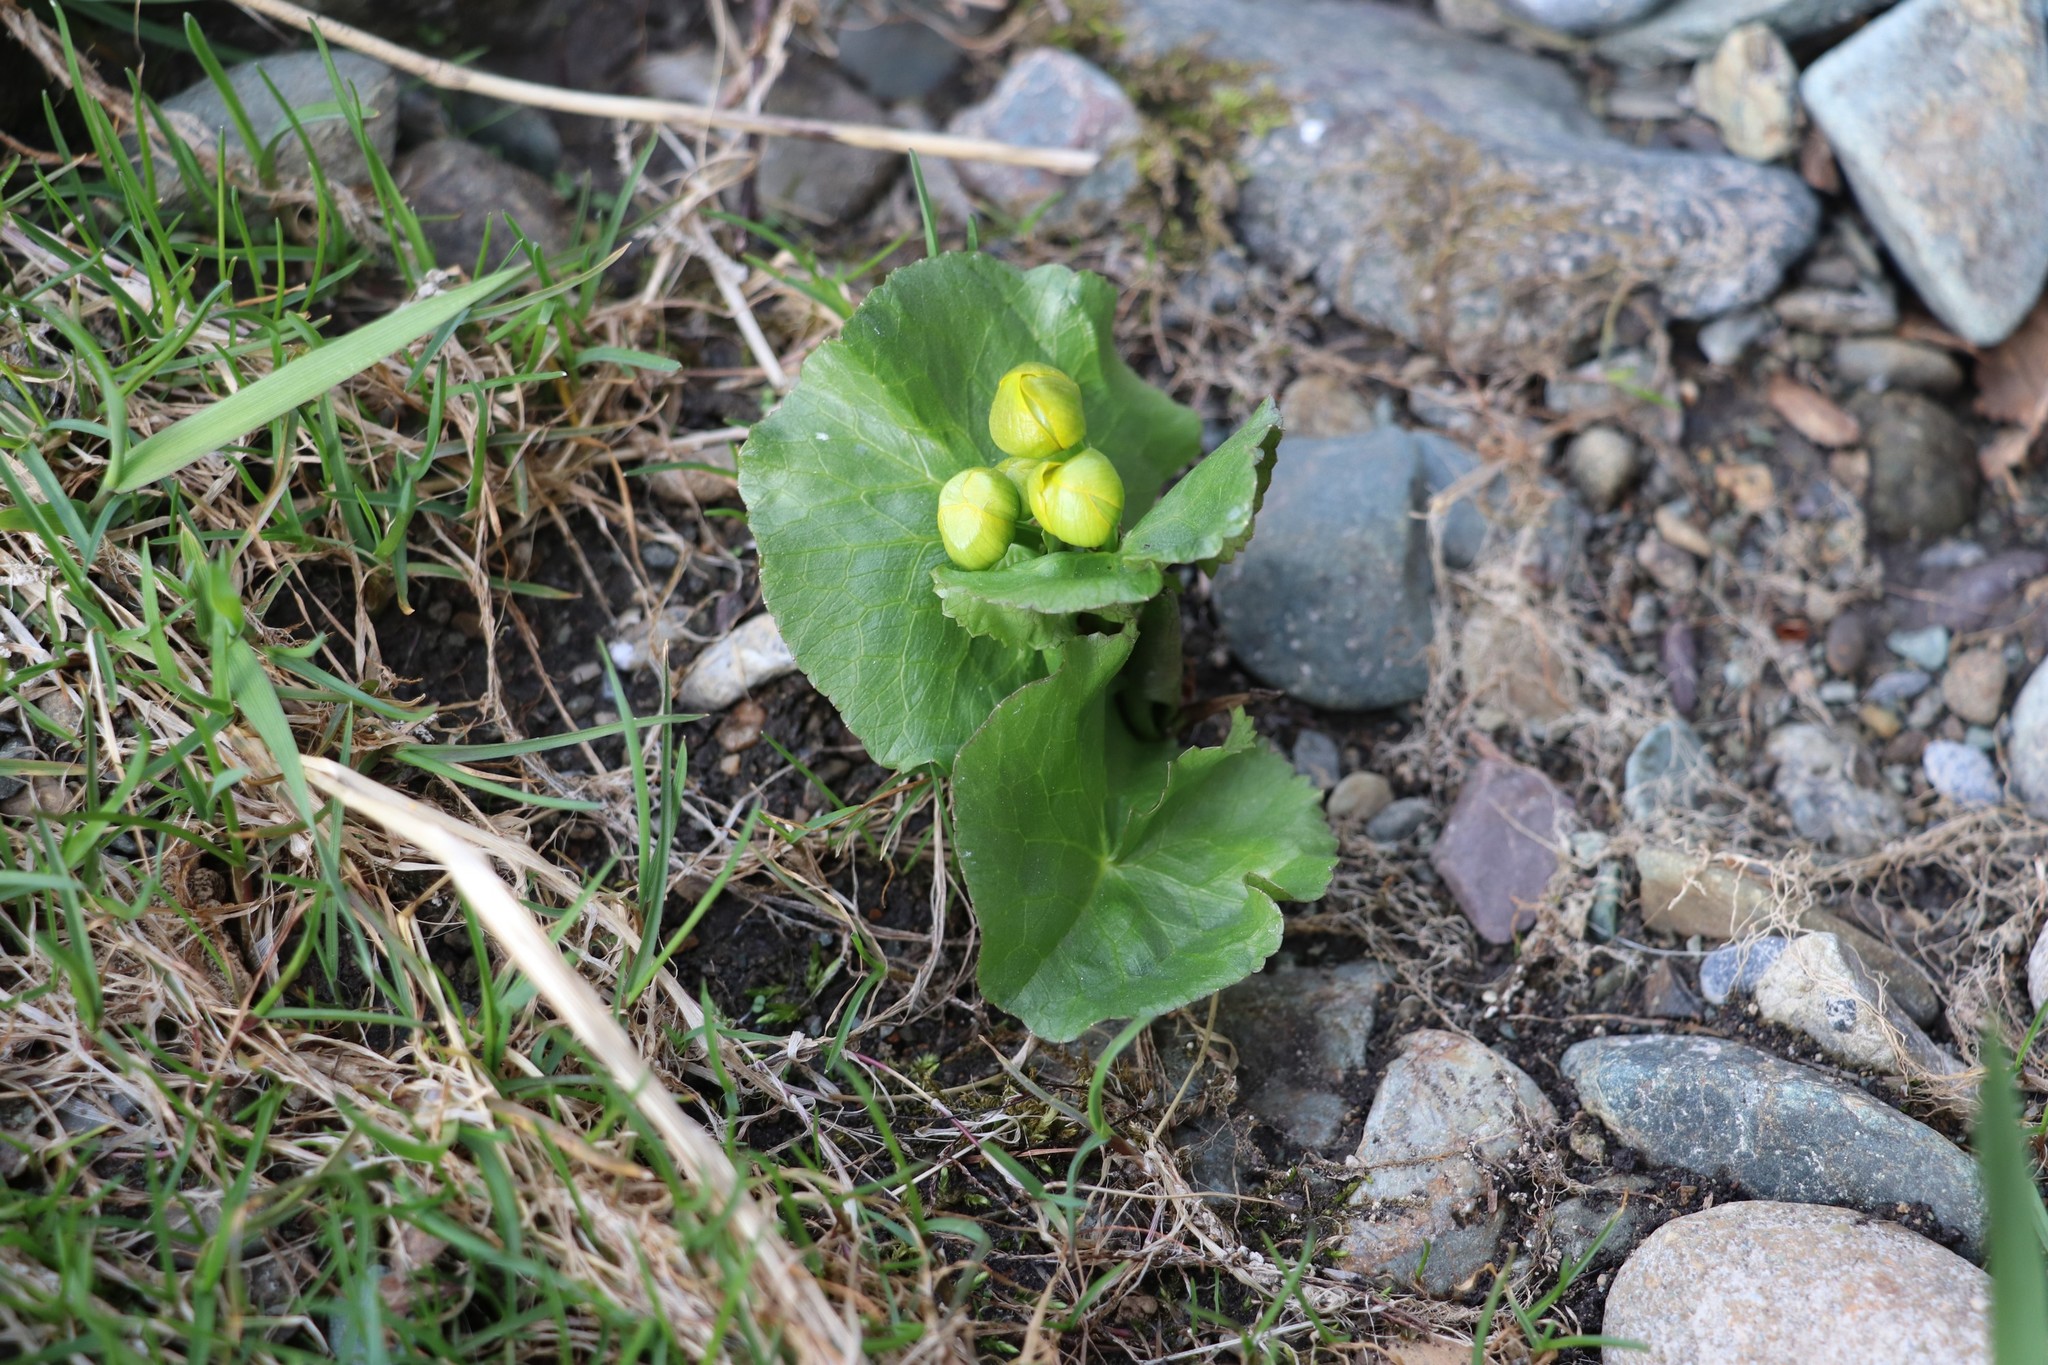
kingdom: Plantae
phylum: Tracheophyta
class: Magnoliopsida
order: Ranunculales
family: Ranunculaceae
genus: Caltha
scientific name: Caltha palustris
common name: Marsh marigold
